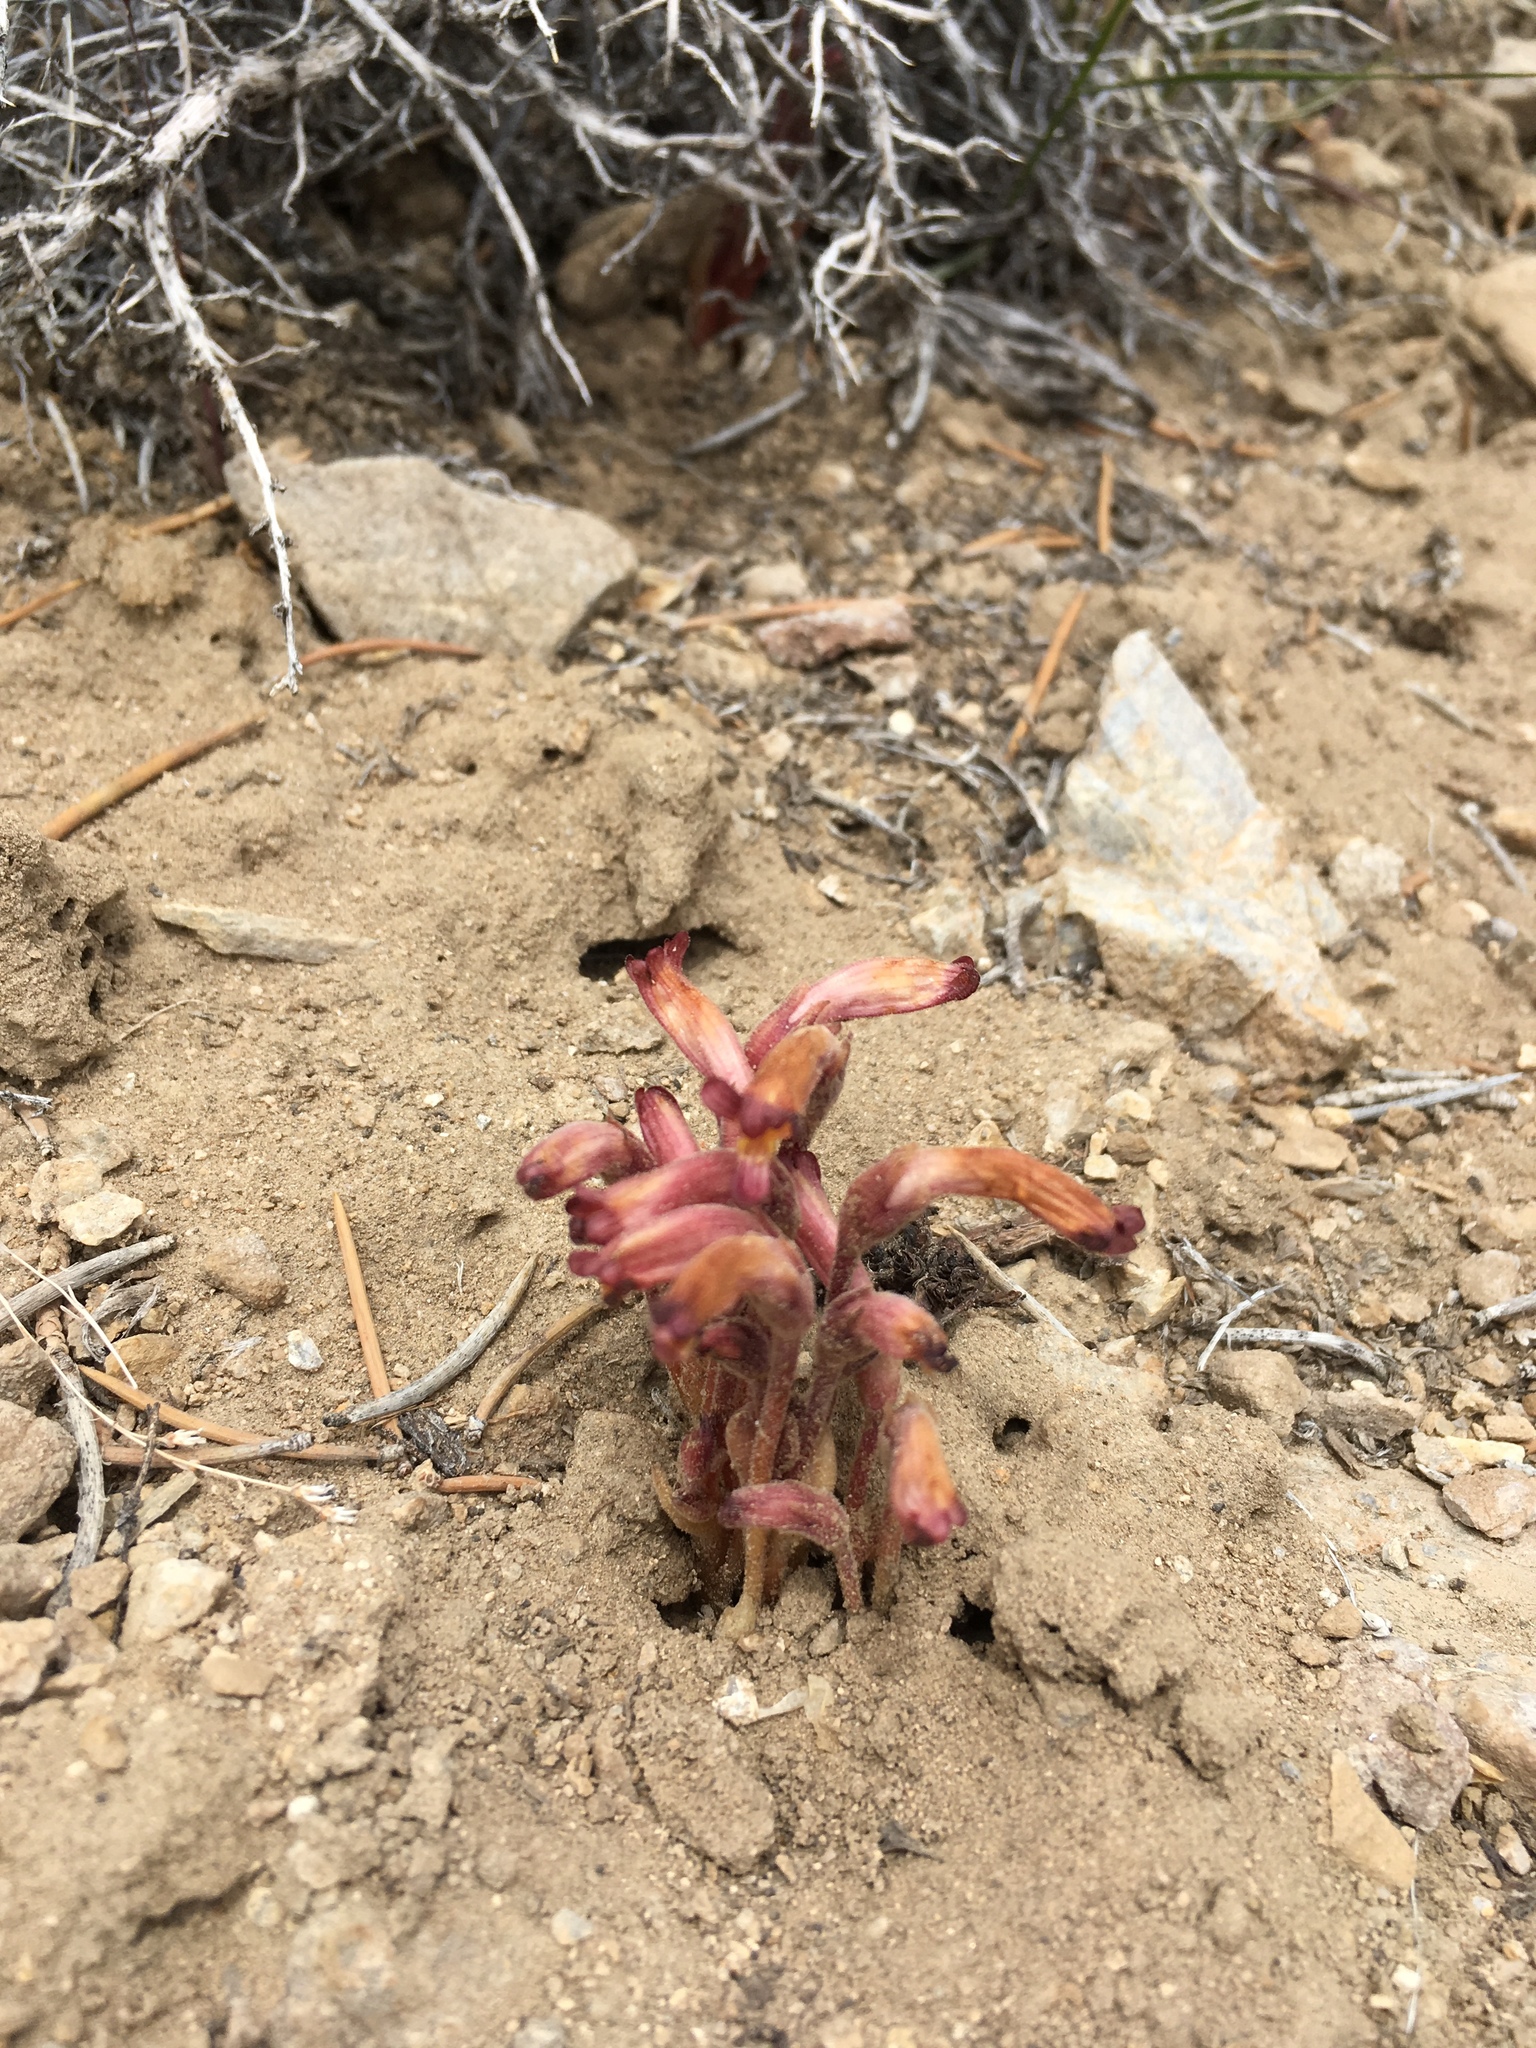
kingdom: Plantae
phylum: Tracheophyta
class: Magnoliopsida
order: Lamiales
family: Orobanchaceae
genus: Aphyllon
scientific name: Aphyllon fasciculatum
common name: Clustered broomrape
